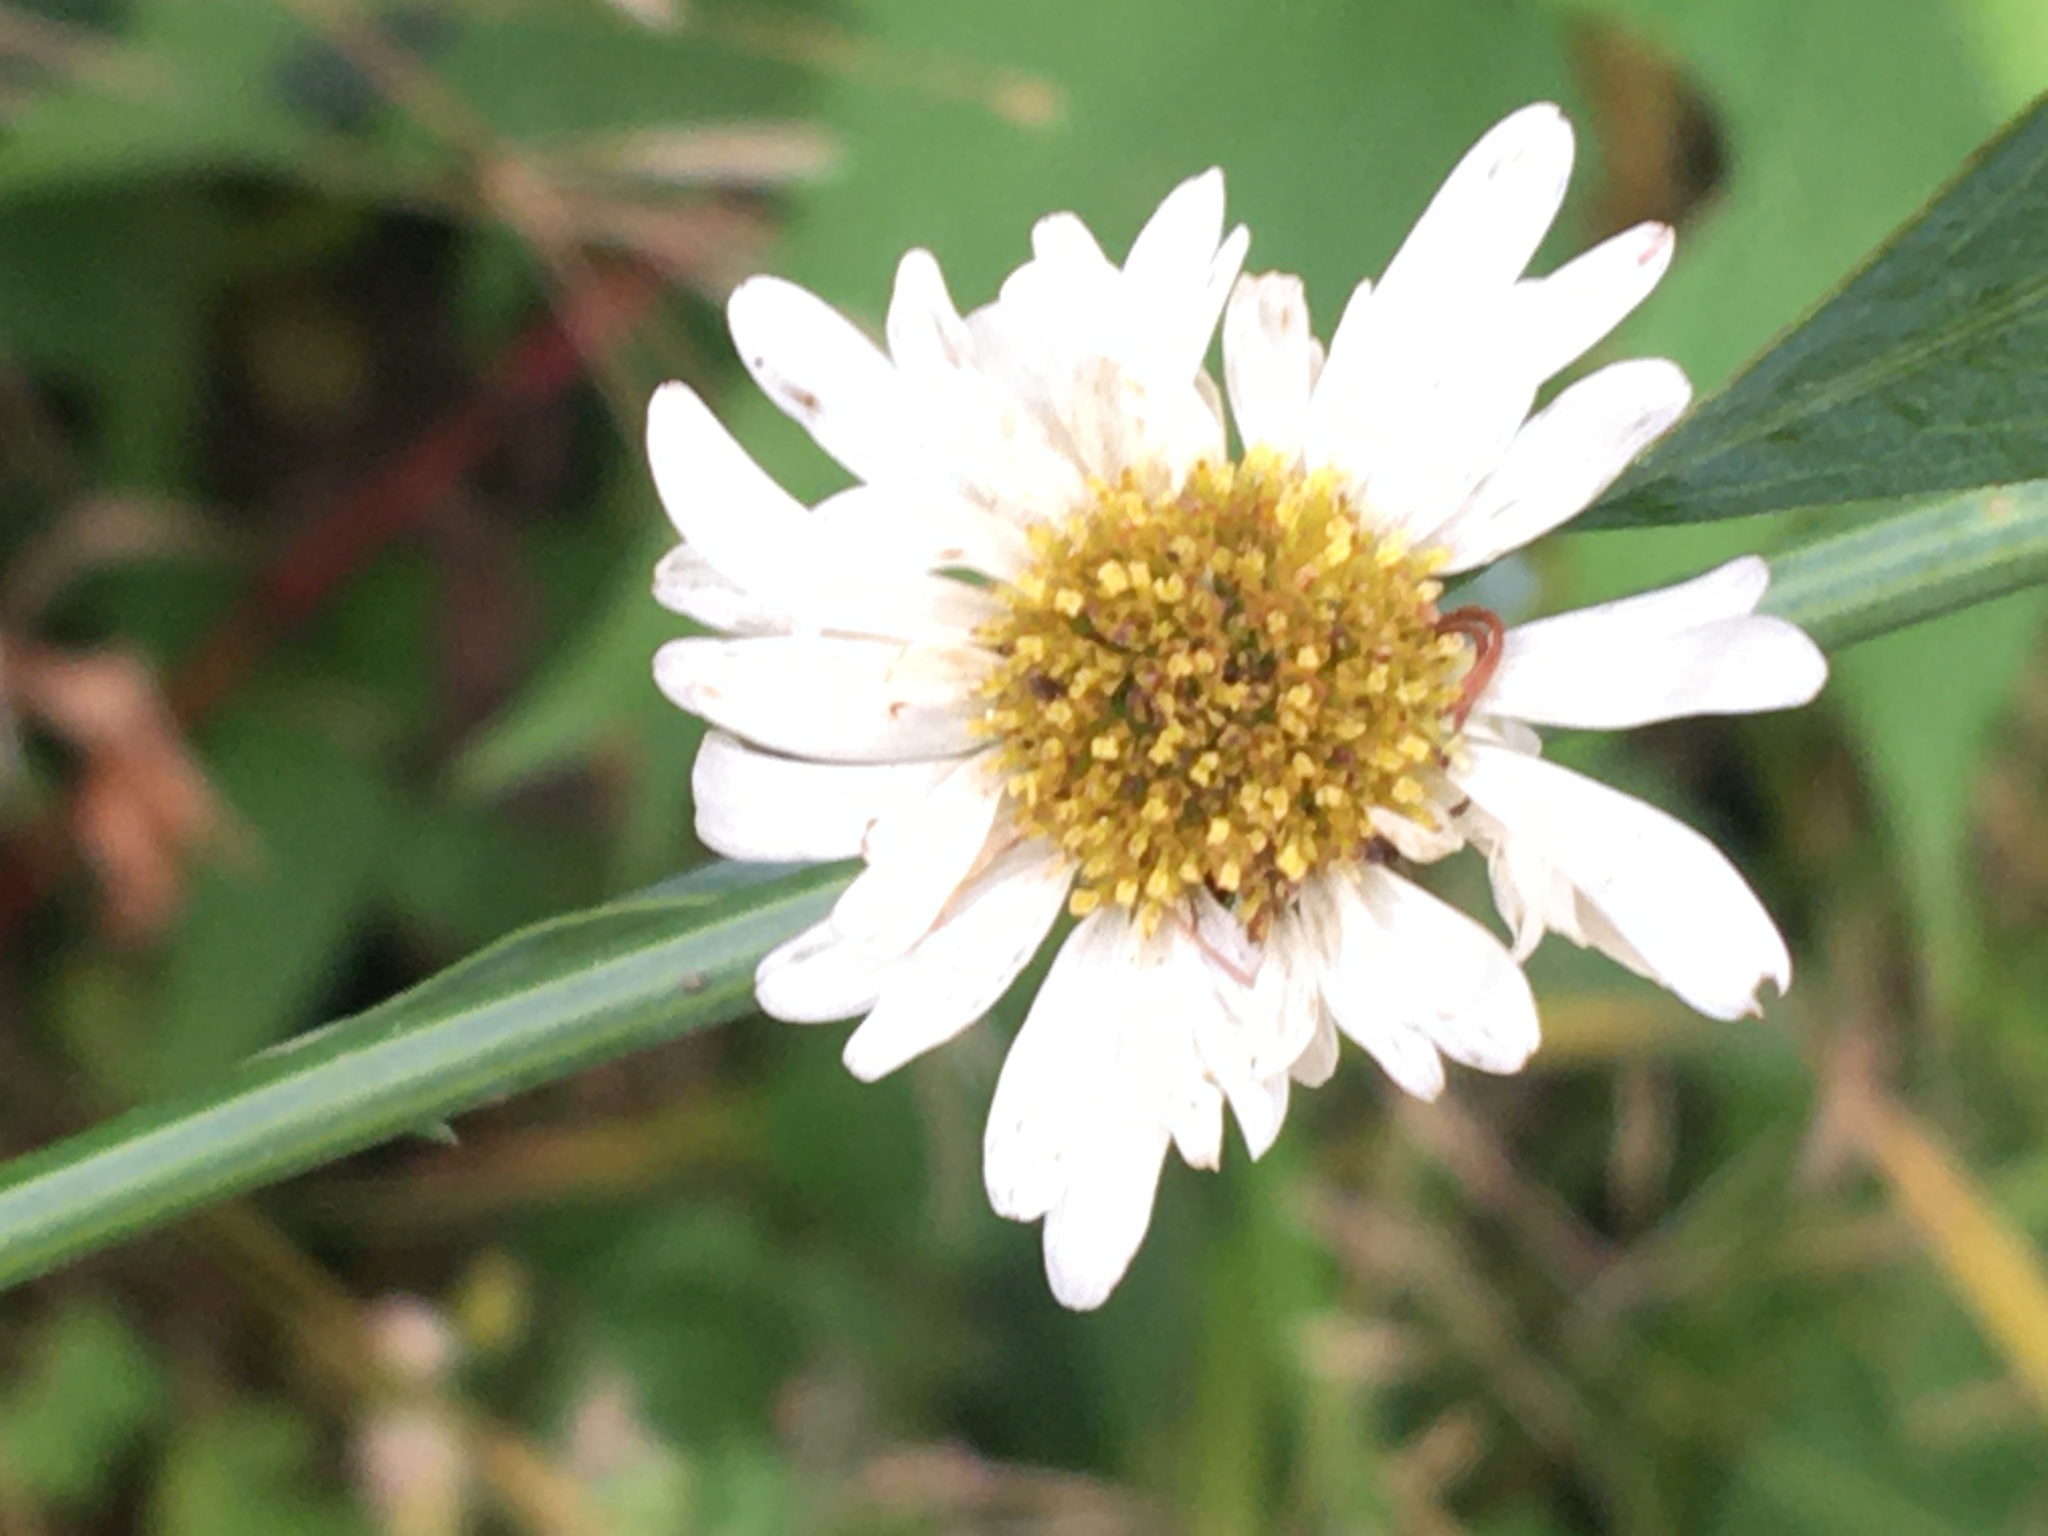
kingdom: Plantae
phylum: Tracheophyta
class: Magnoliopsida
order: Asterales
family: Asteraceae
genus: Boltonia
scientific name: Boltonia asteroides
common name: False chamomile
